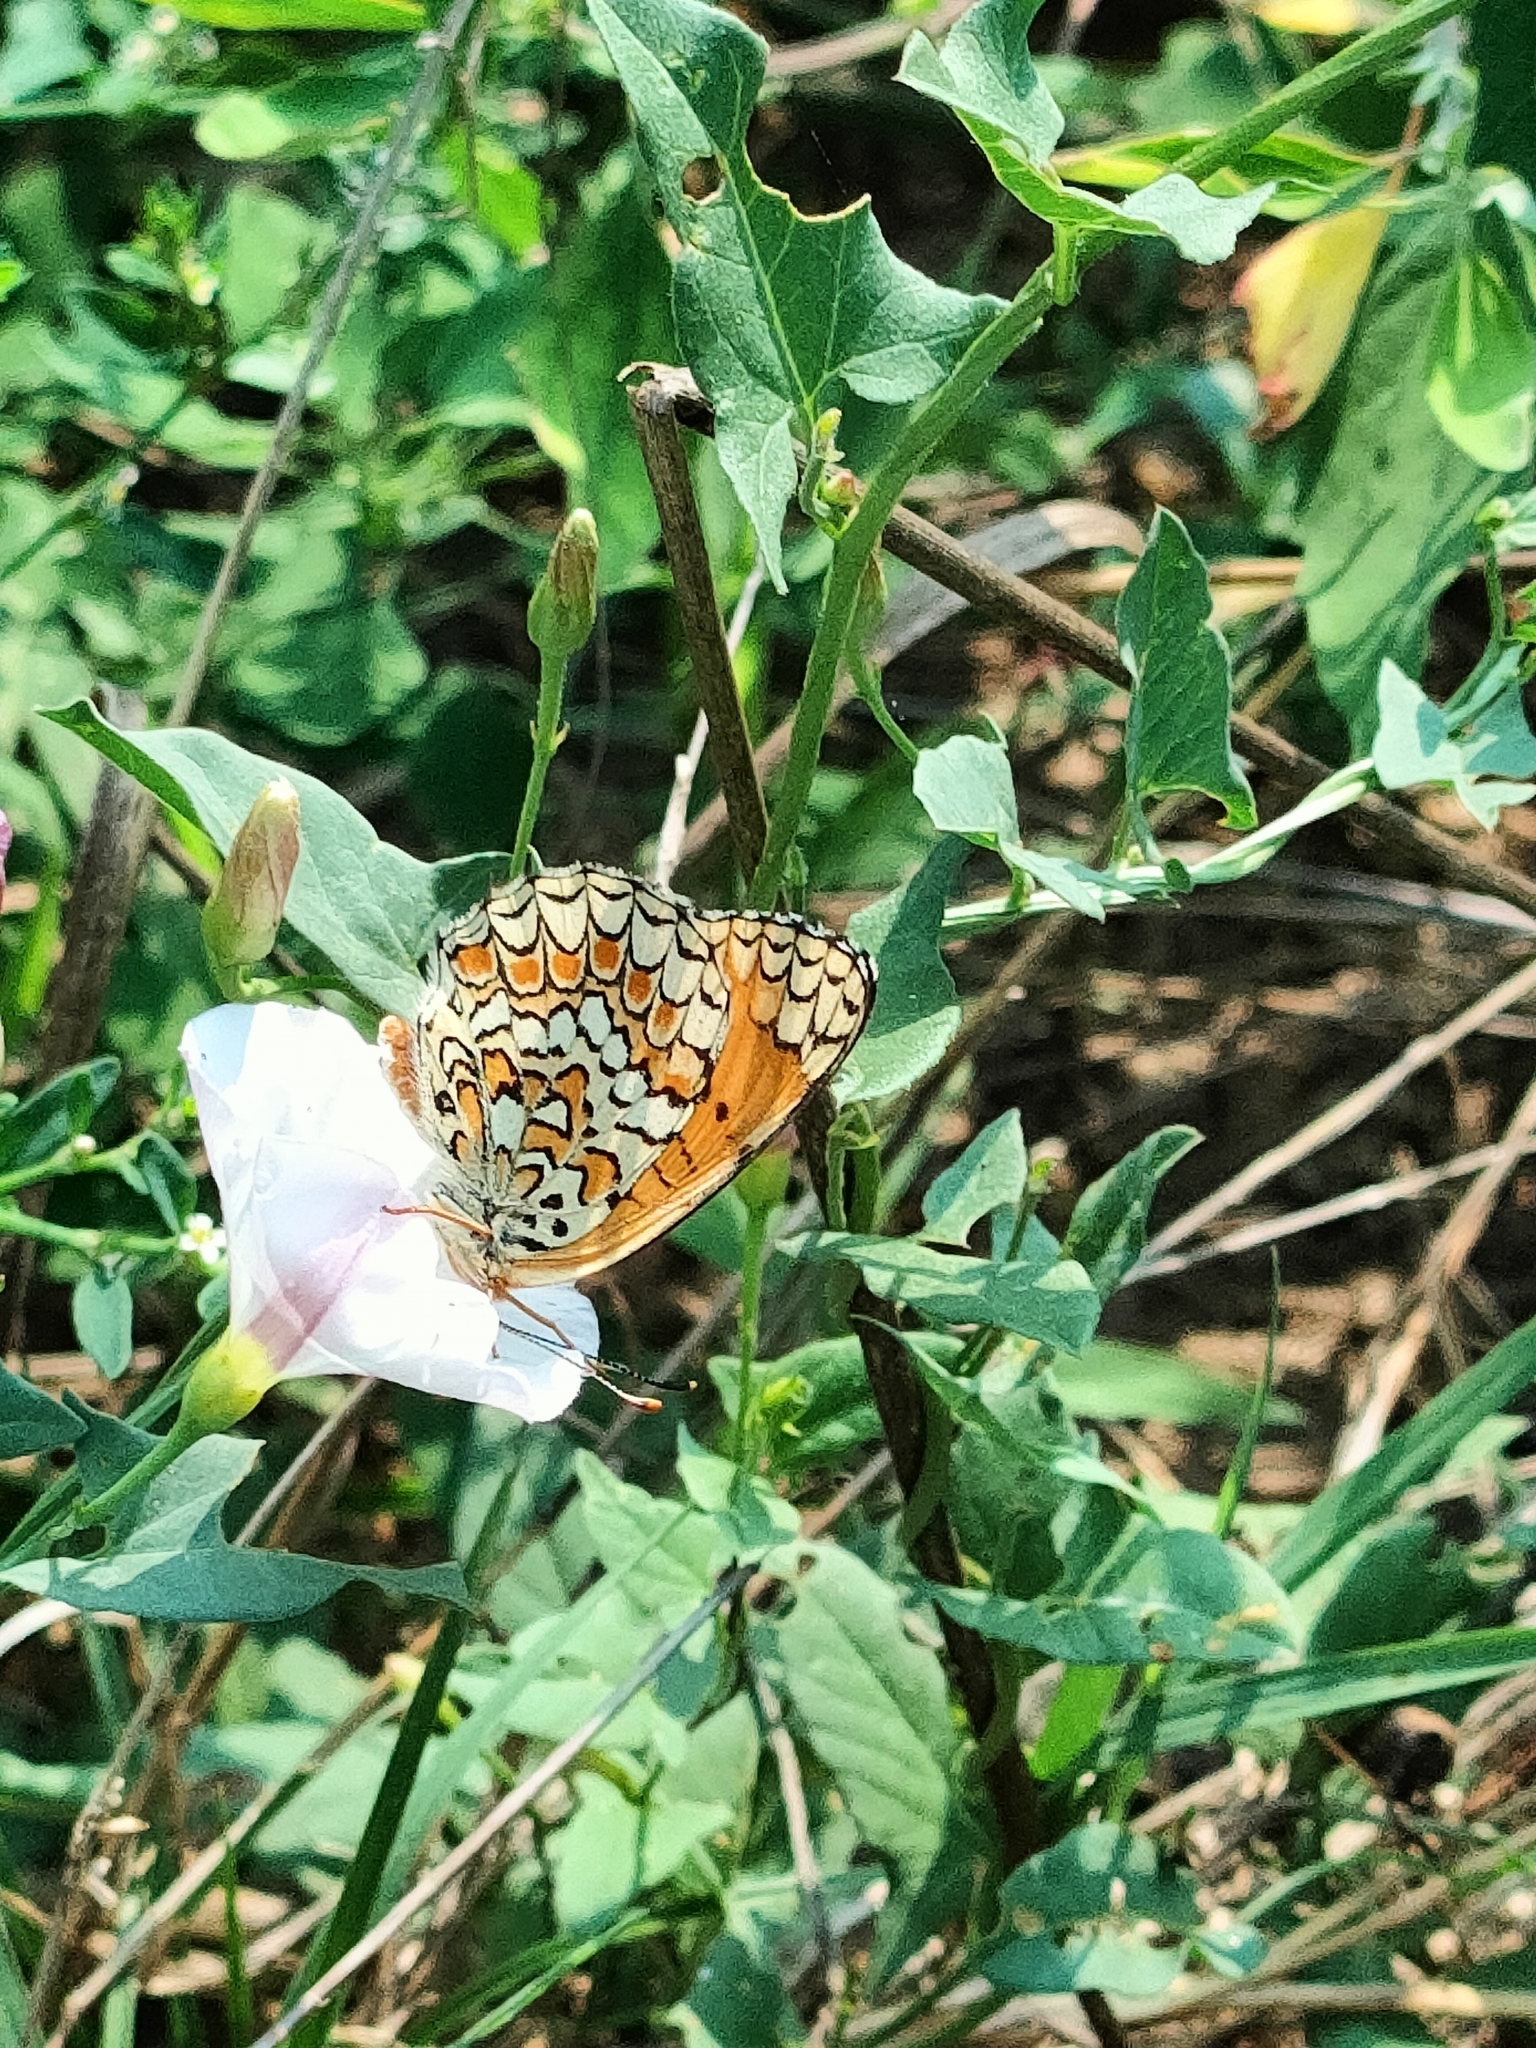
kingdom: Animalia
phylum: Arthropoda
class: Insecta
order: Lepidoptera
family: Nymphalidae
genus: Melitaea
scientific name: Melitaea phoebe
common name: Knapweed fritillary
